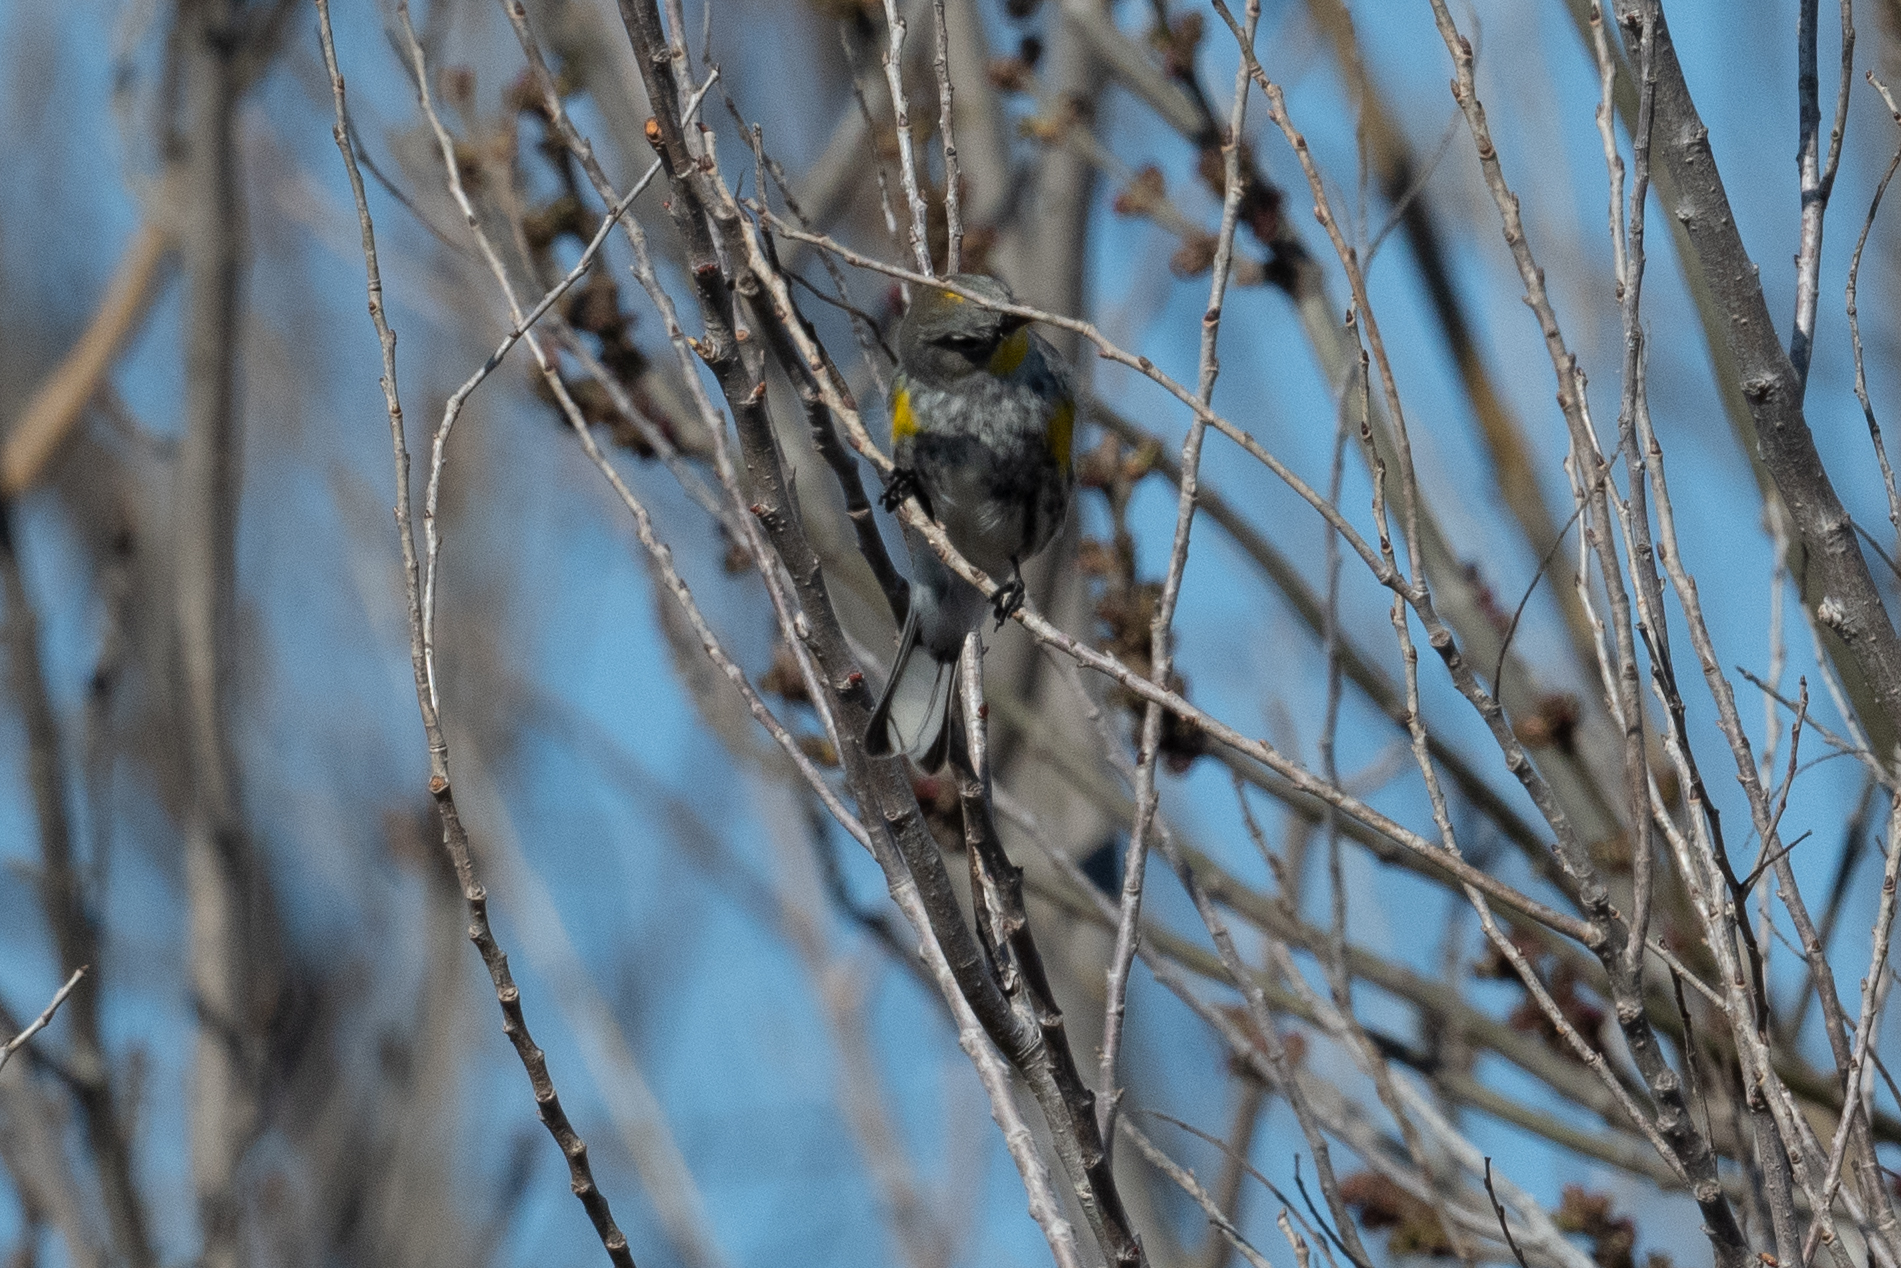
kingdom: Animalia
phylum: Chordata
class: Aves
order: Passeriformes
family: Parulidae
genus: Setophaga
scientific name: Setophaga coronata
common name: Myrtle warbler
